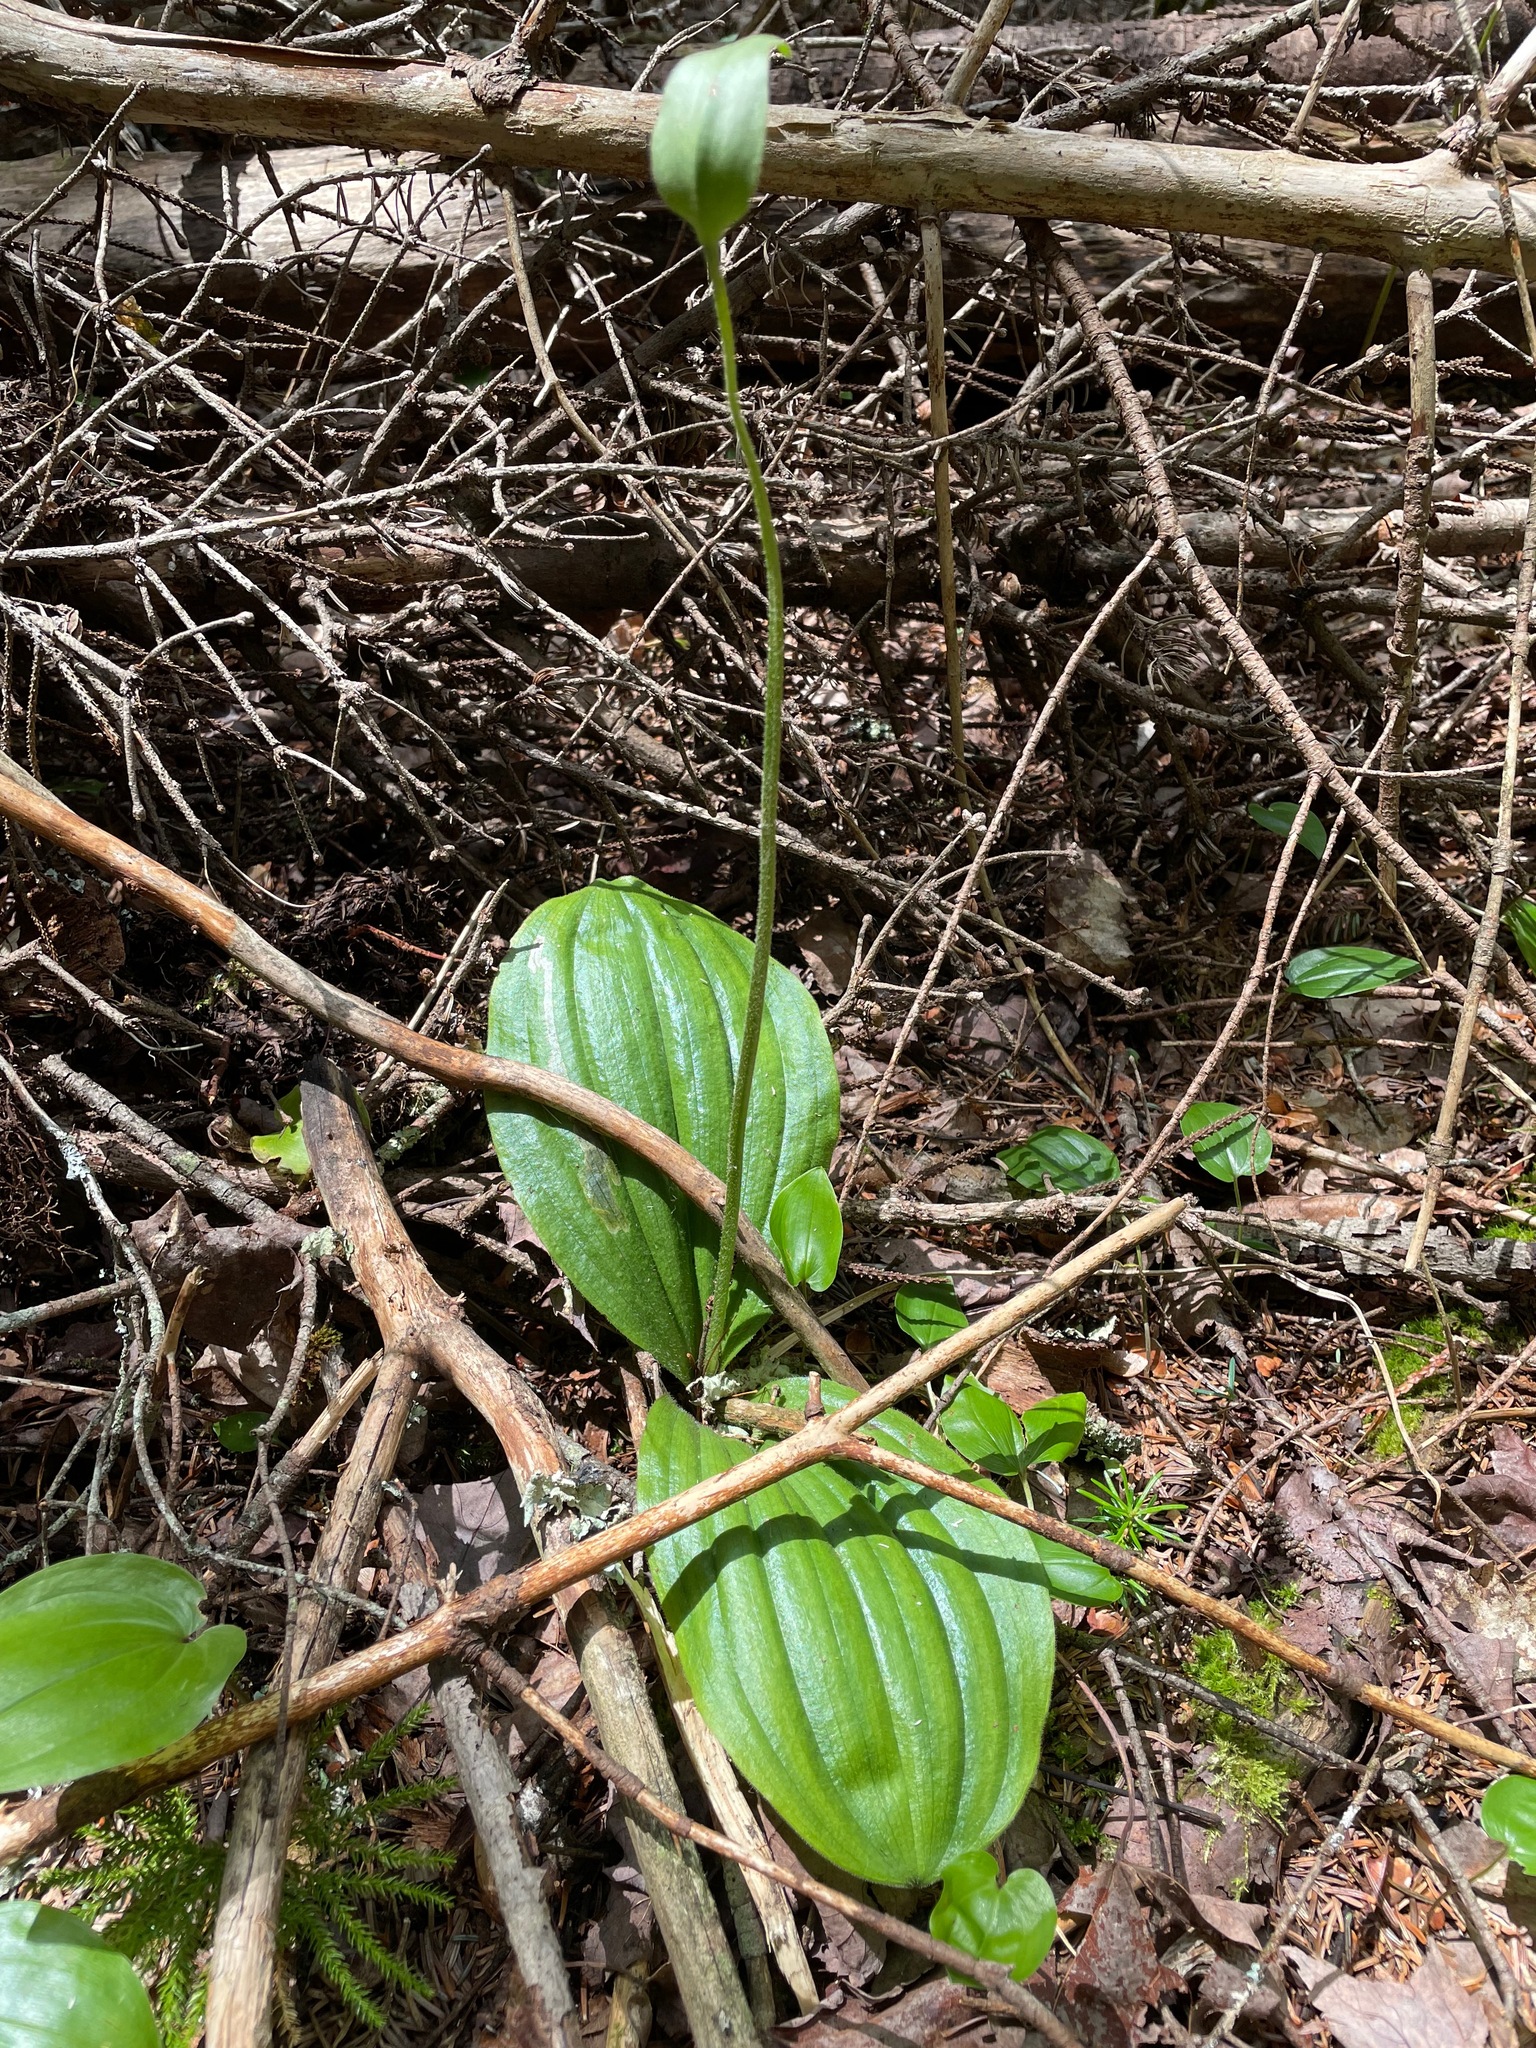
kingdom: Plantae
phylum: Tracheophyta
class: Liliopsida
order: Asparagales
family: Orchidaceae
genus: Cypripedium
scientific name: Cypripedium acaule
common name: Pink lady's-slipper
